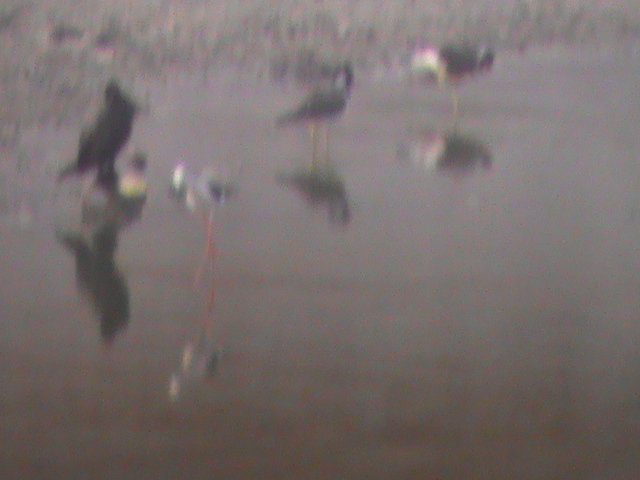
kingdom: Animalia
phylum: Chordata
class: Aves
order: Charadriiformes
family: Charadriidae
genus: Vanellus
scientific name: Vanellus indicus
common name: Red-wattled lapwing
